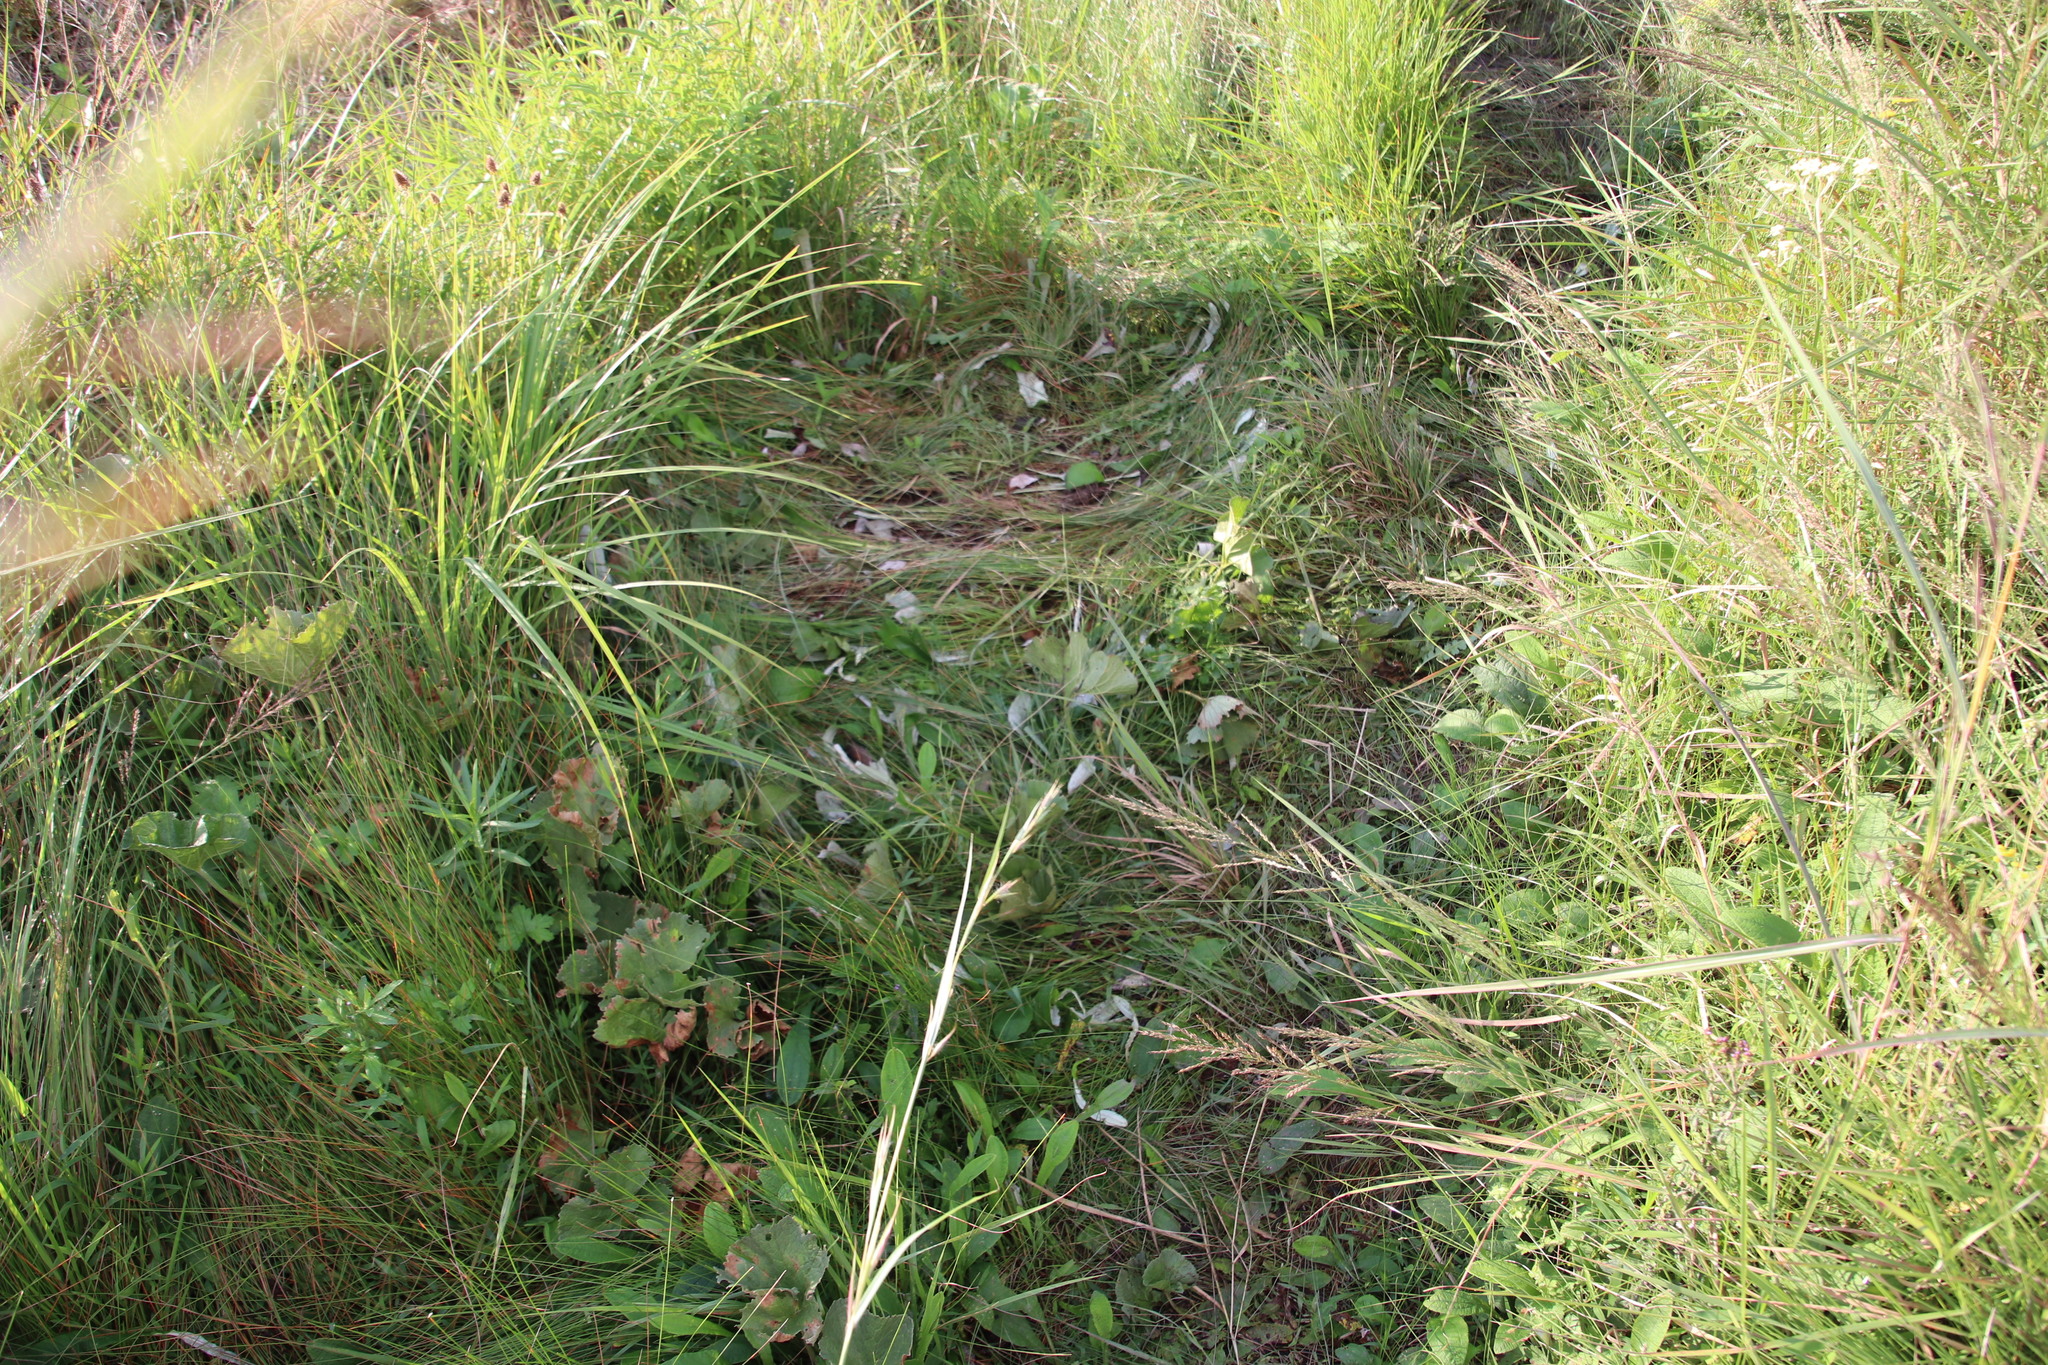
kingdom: Plantae
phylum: Tracheophyta
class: Magnoliopsida
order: Gunnerales
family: Gunneraceae
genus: Gunnera
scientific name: Gunnera perpensa
